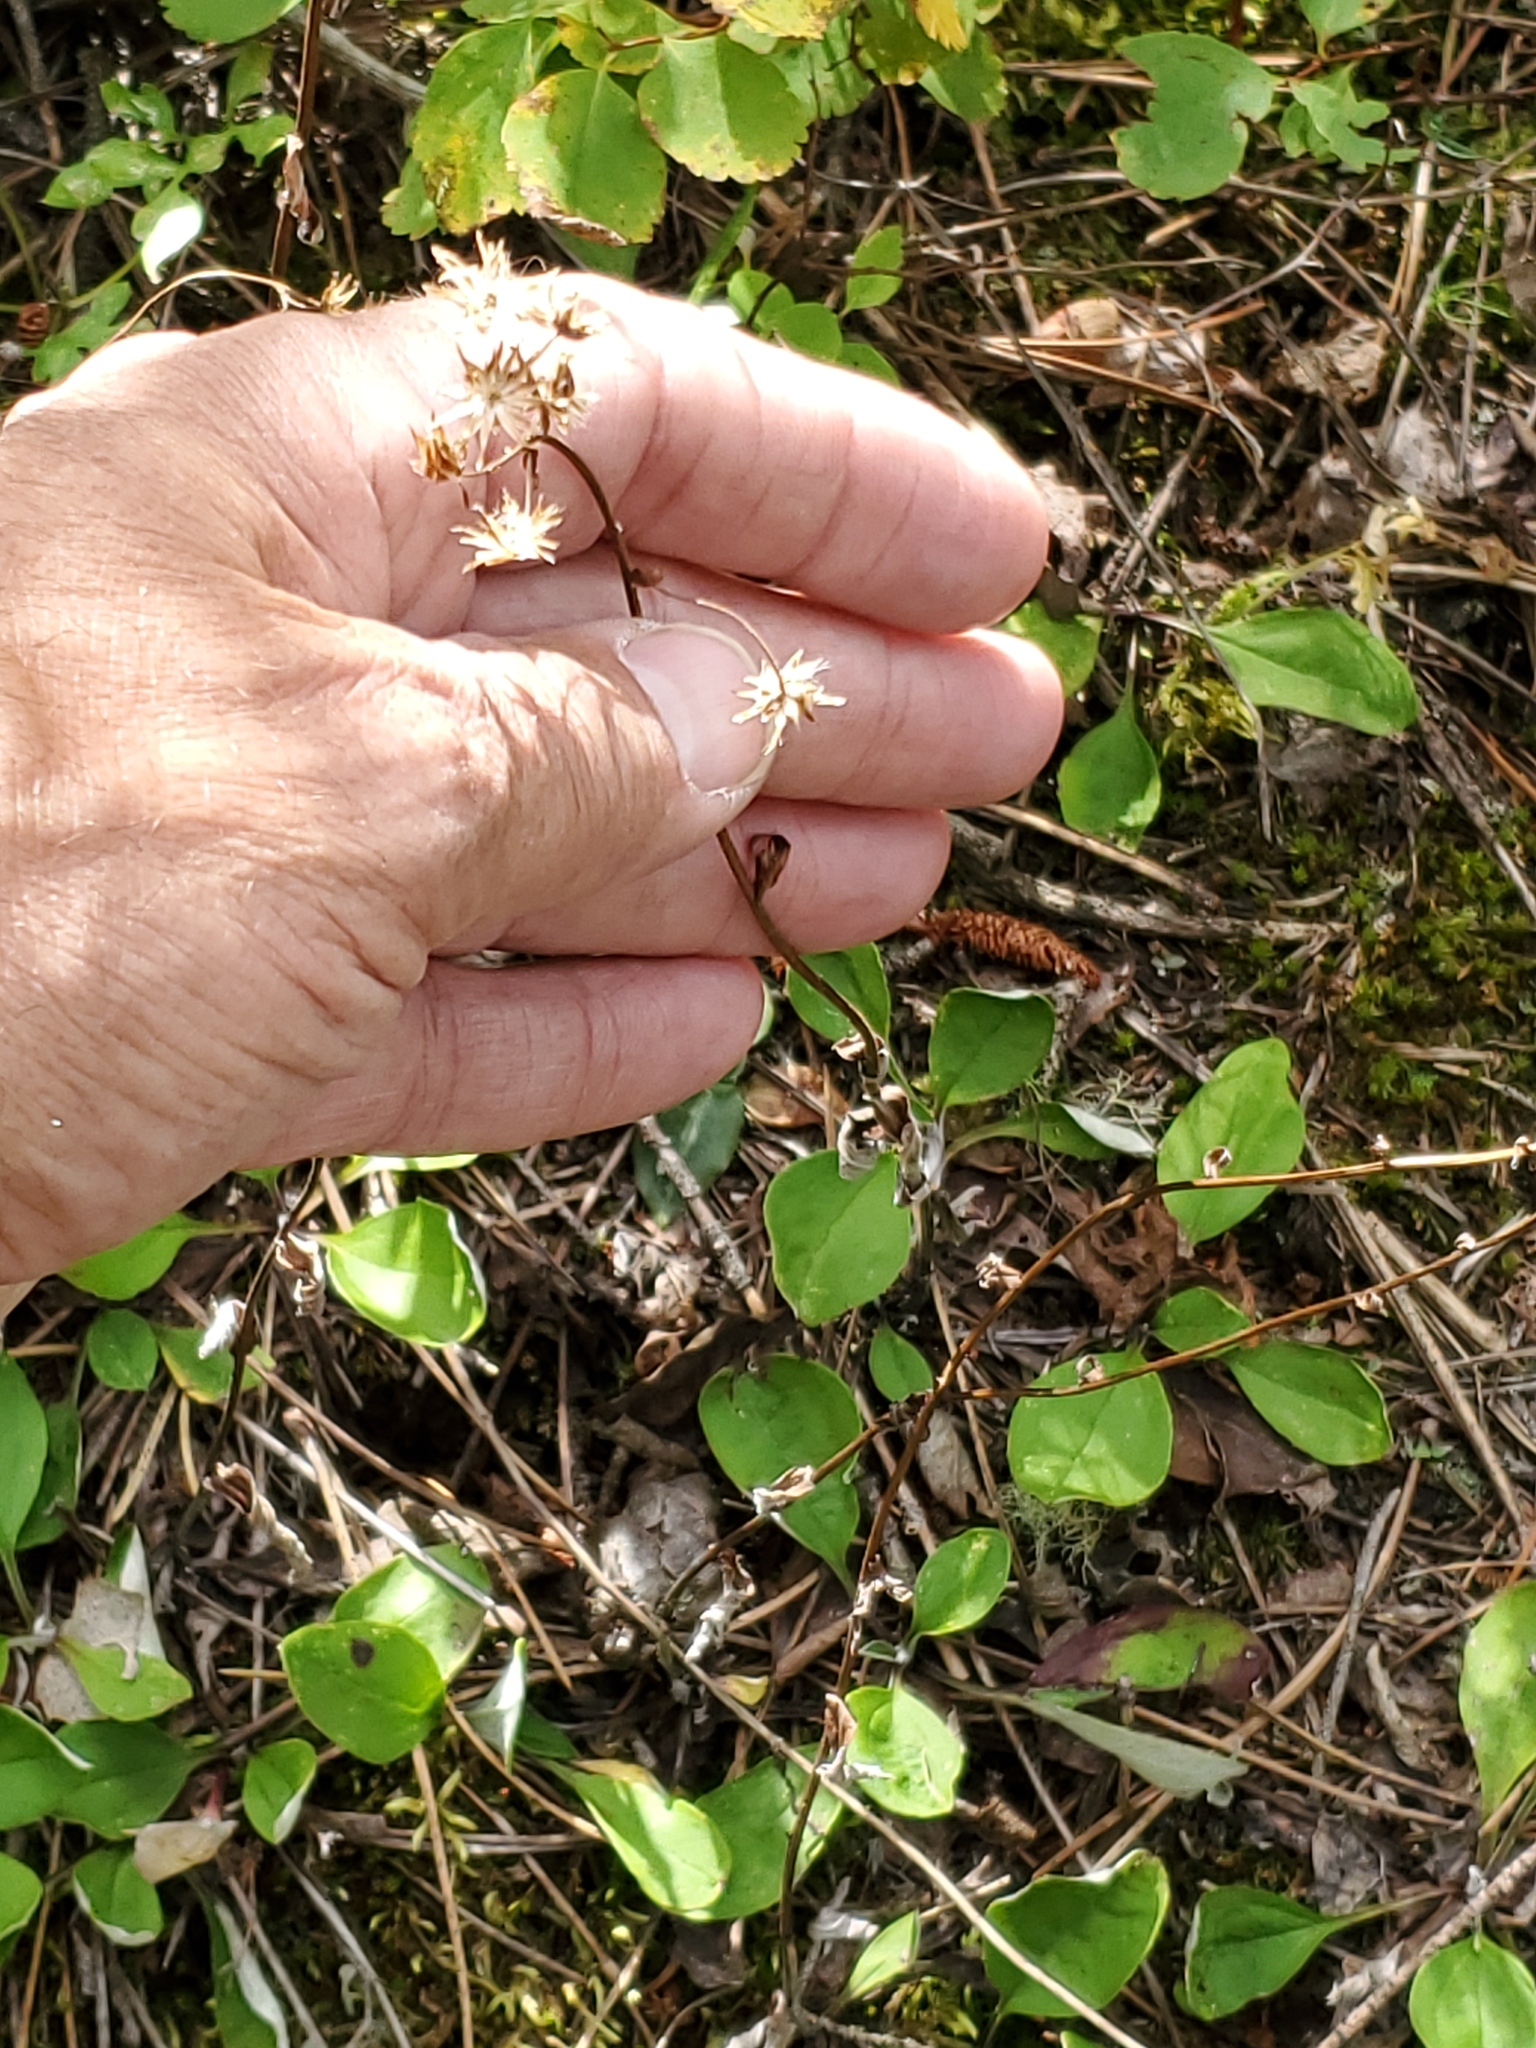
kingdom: Plantae
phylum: Tracheophyta
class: Magnoliopsida
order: Asterales
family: Asteraceae
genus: Antennaria
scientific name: Antennaria racemosa
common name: Racemose pussytoes
